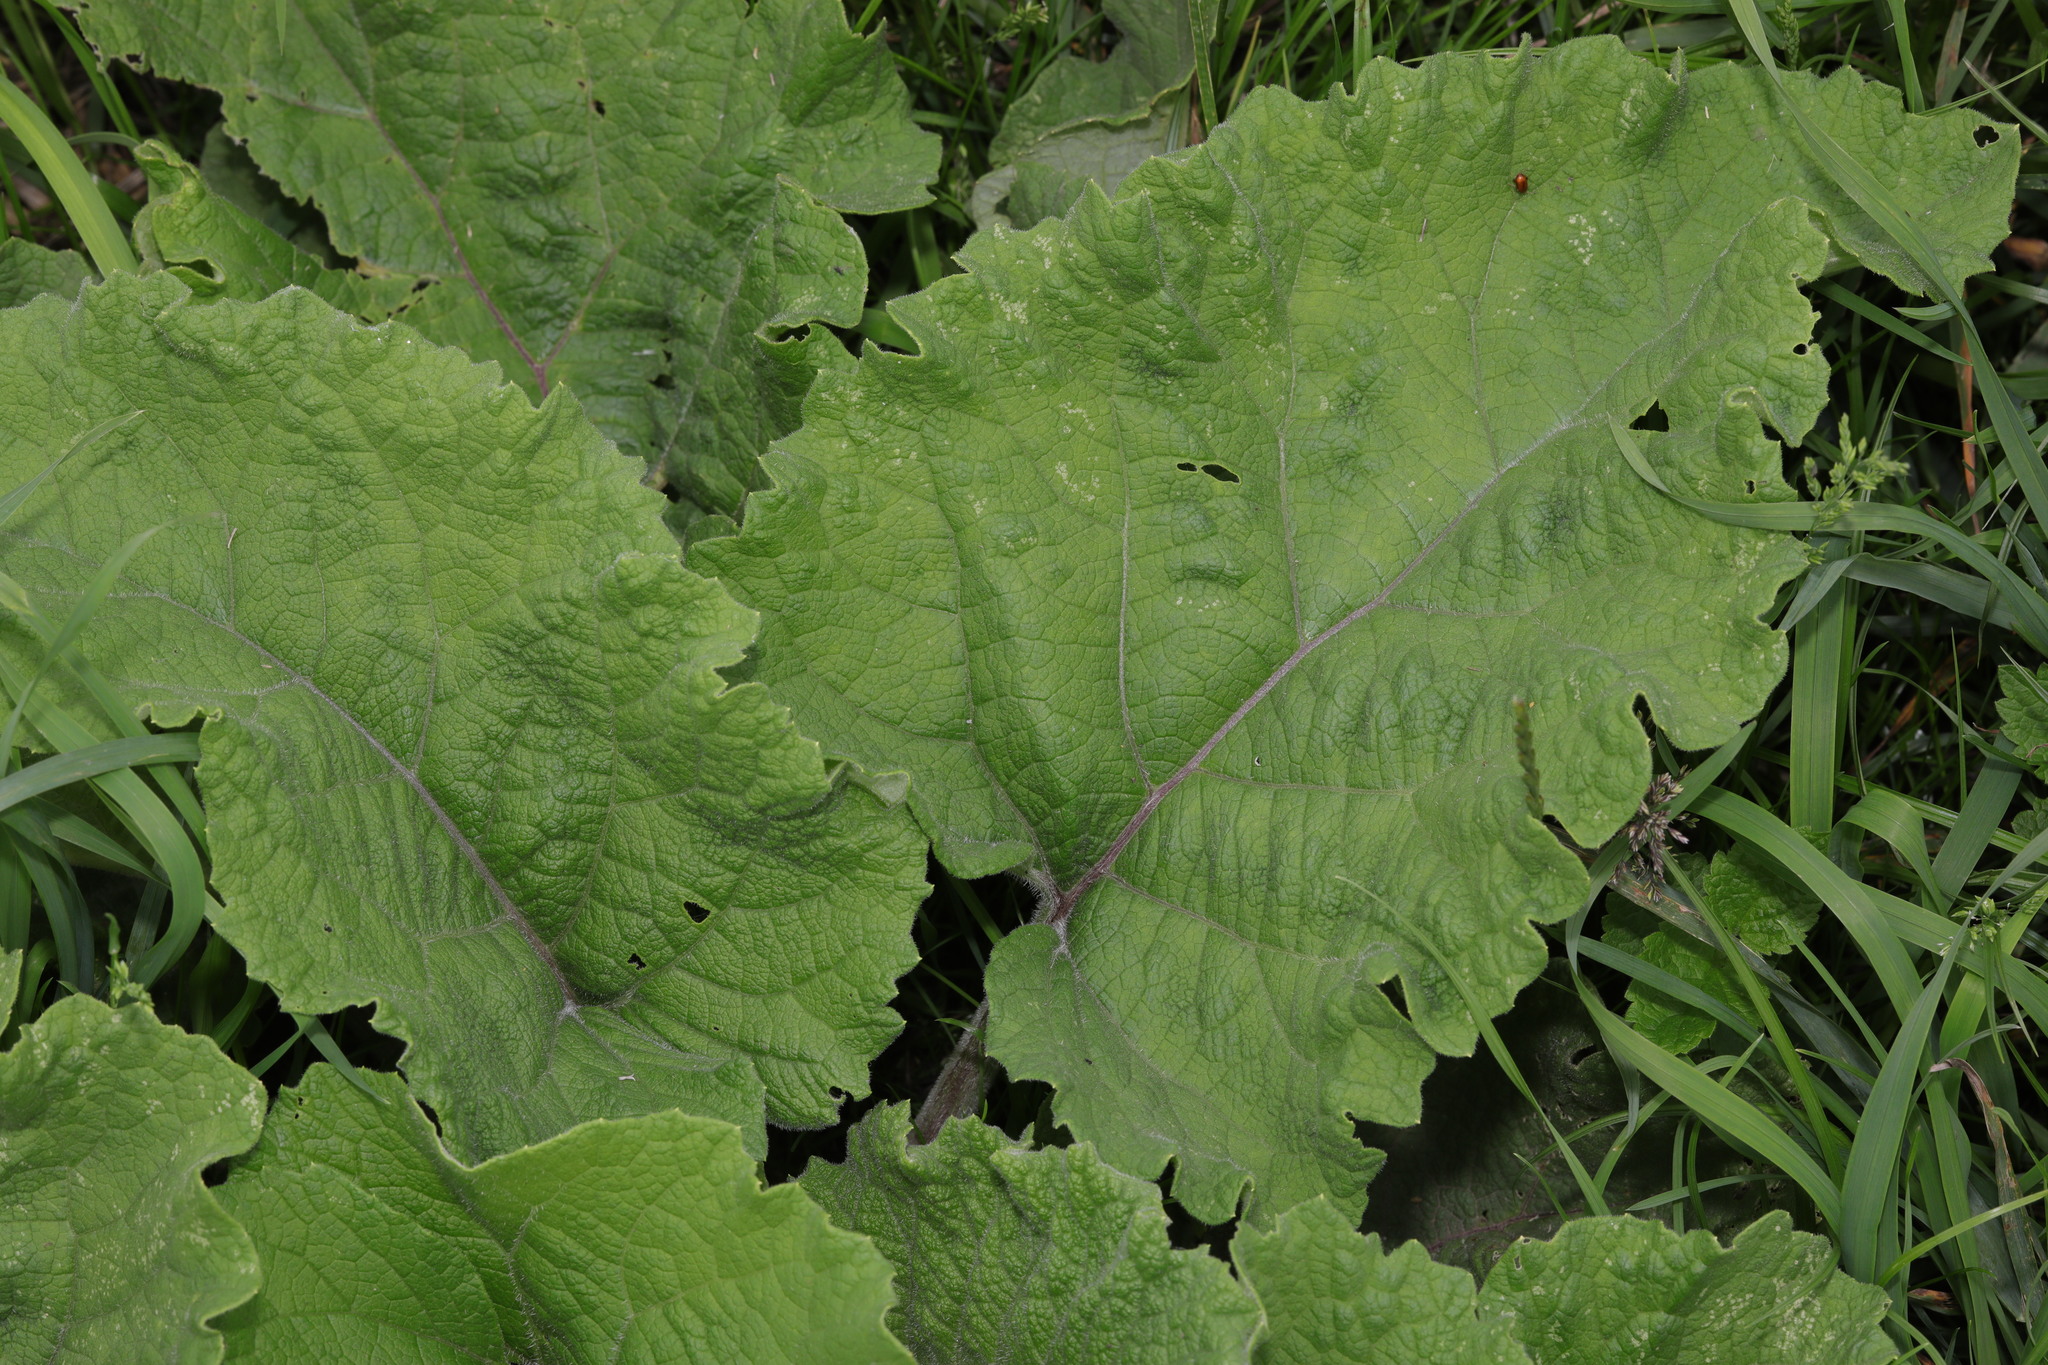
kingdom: Plantae
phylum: Tracheophyta
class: Magnoliopsida
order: Asterales
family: Asteraceae
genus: Arctium
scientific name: Arctium minus
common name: Lesser burdock
